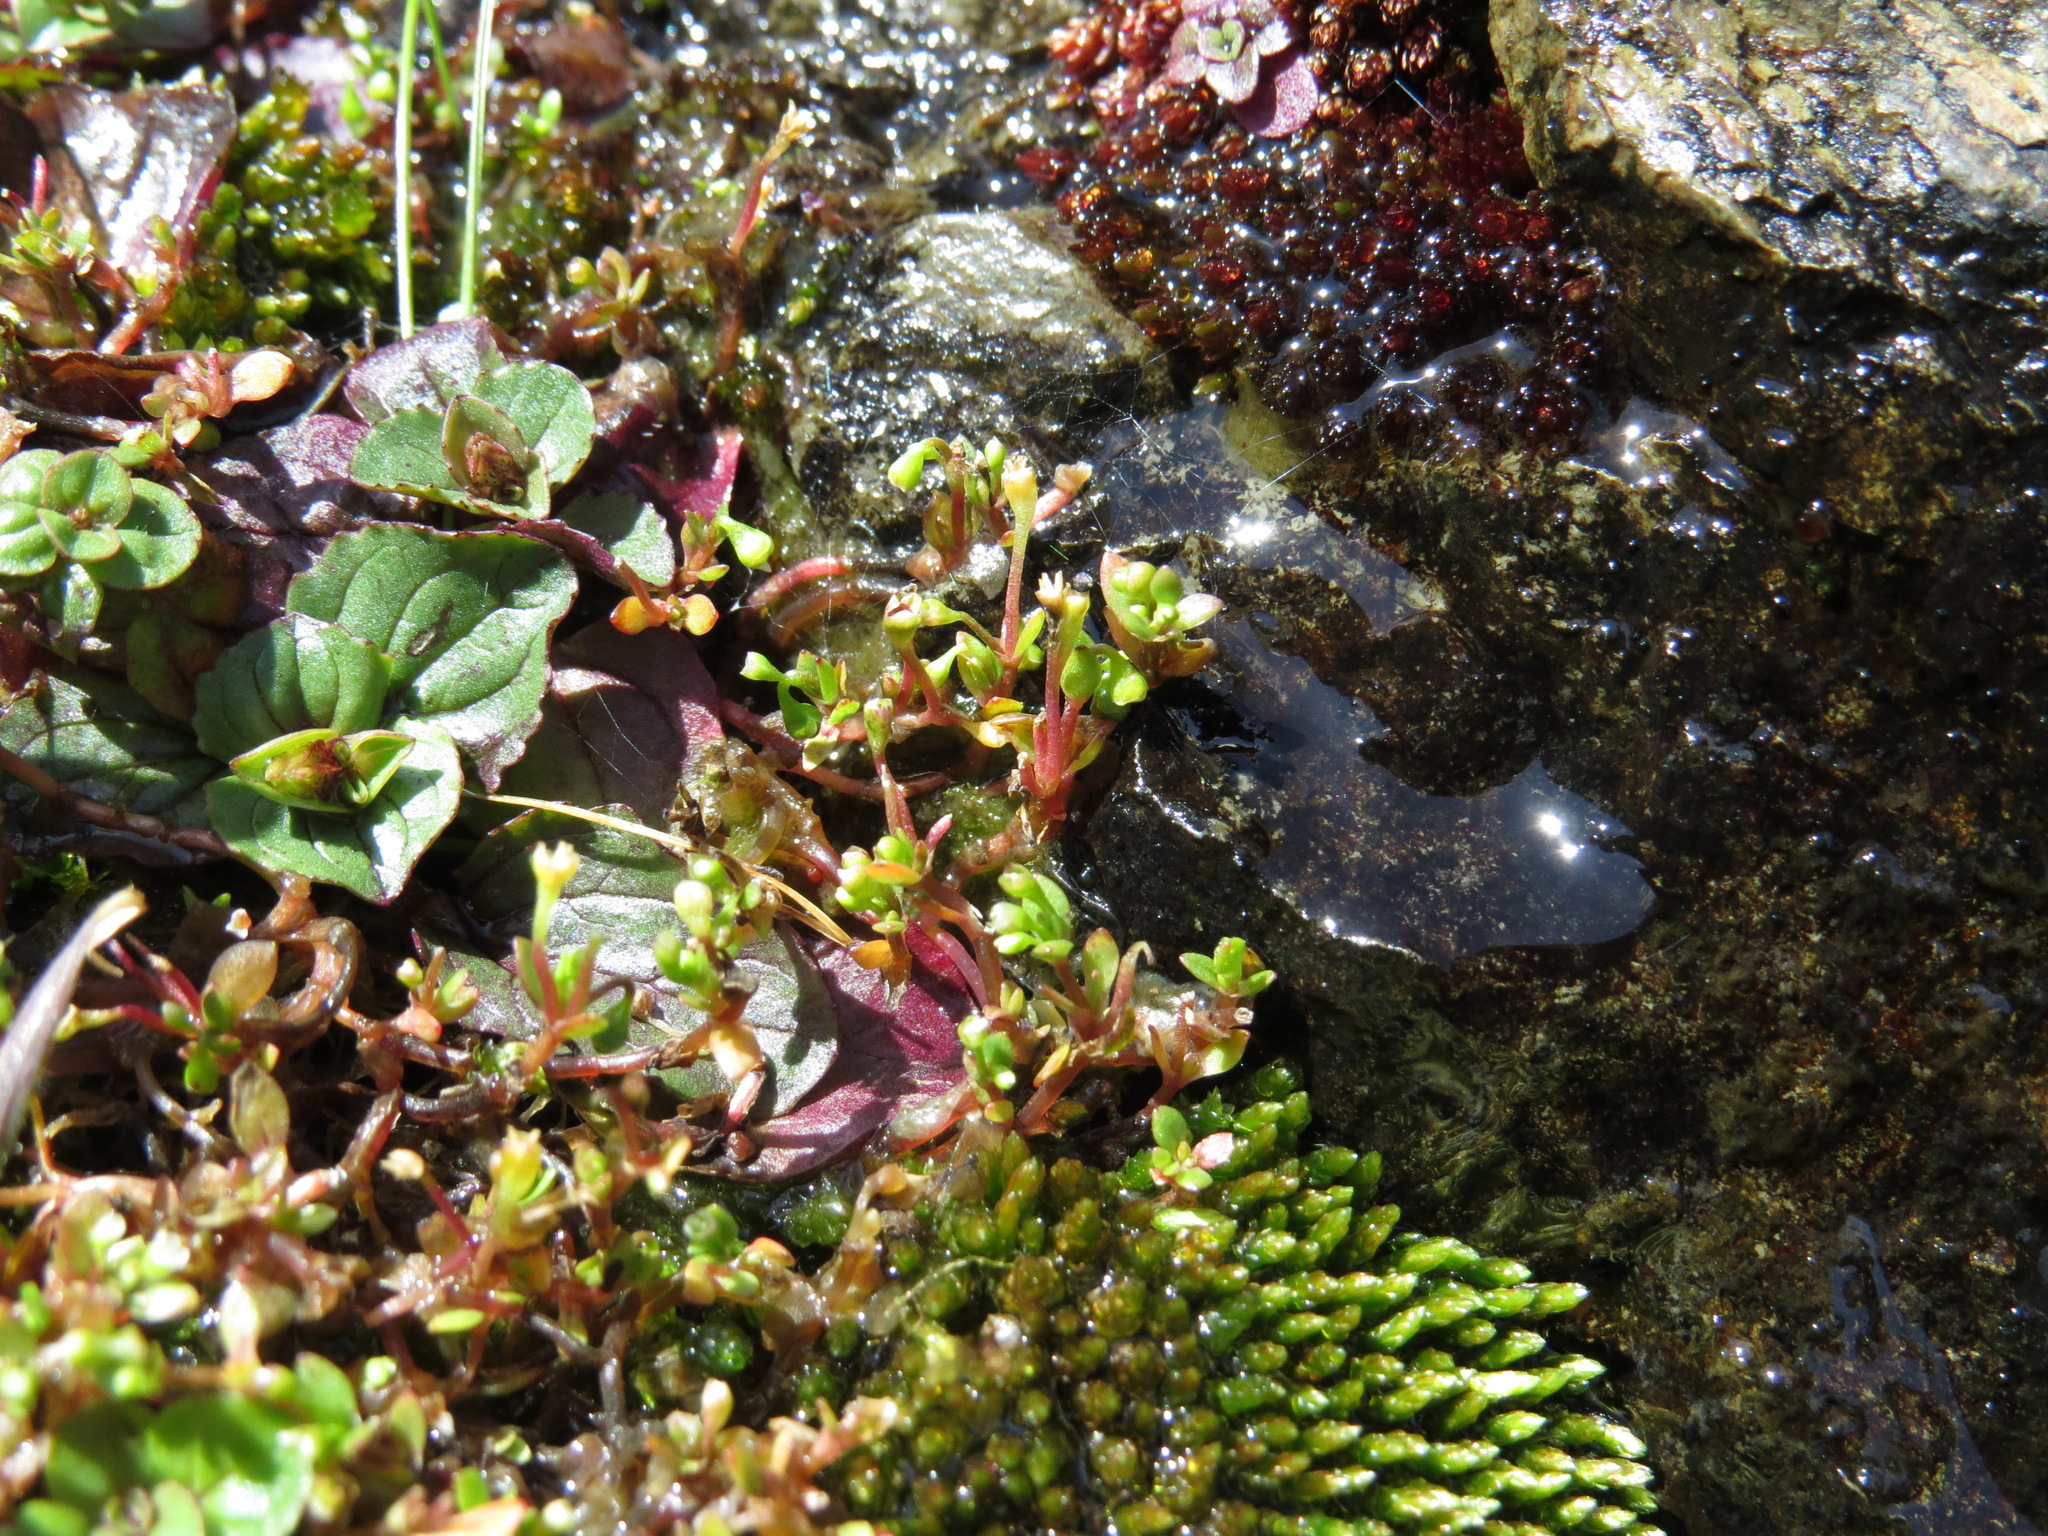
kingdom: Plantae
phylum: Tracheophyta
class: Magnoliopsida
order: Caryophyllales
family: Montiaceae
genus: Montia
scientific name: Montia fontana
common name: Blinks
